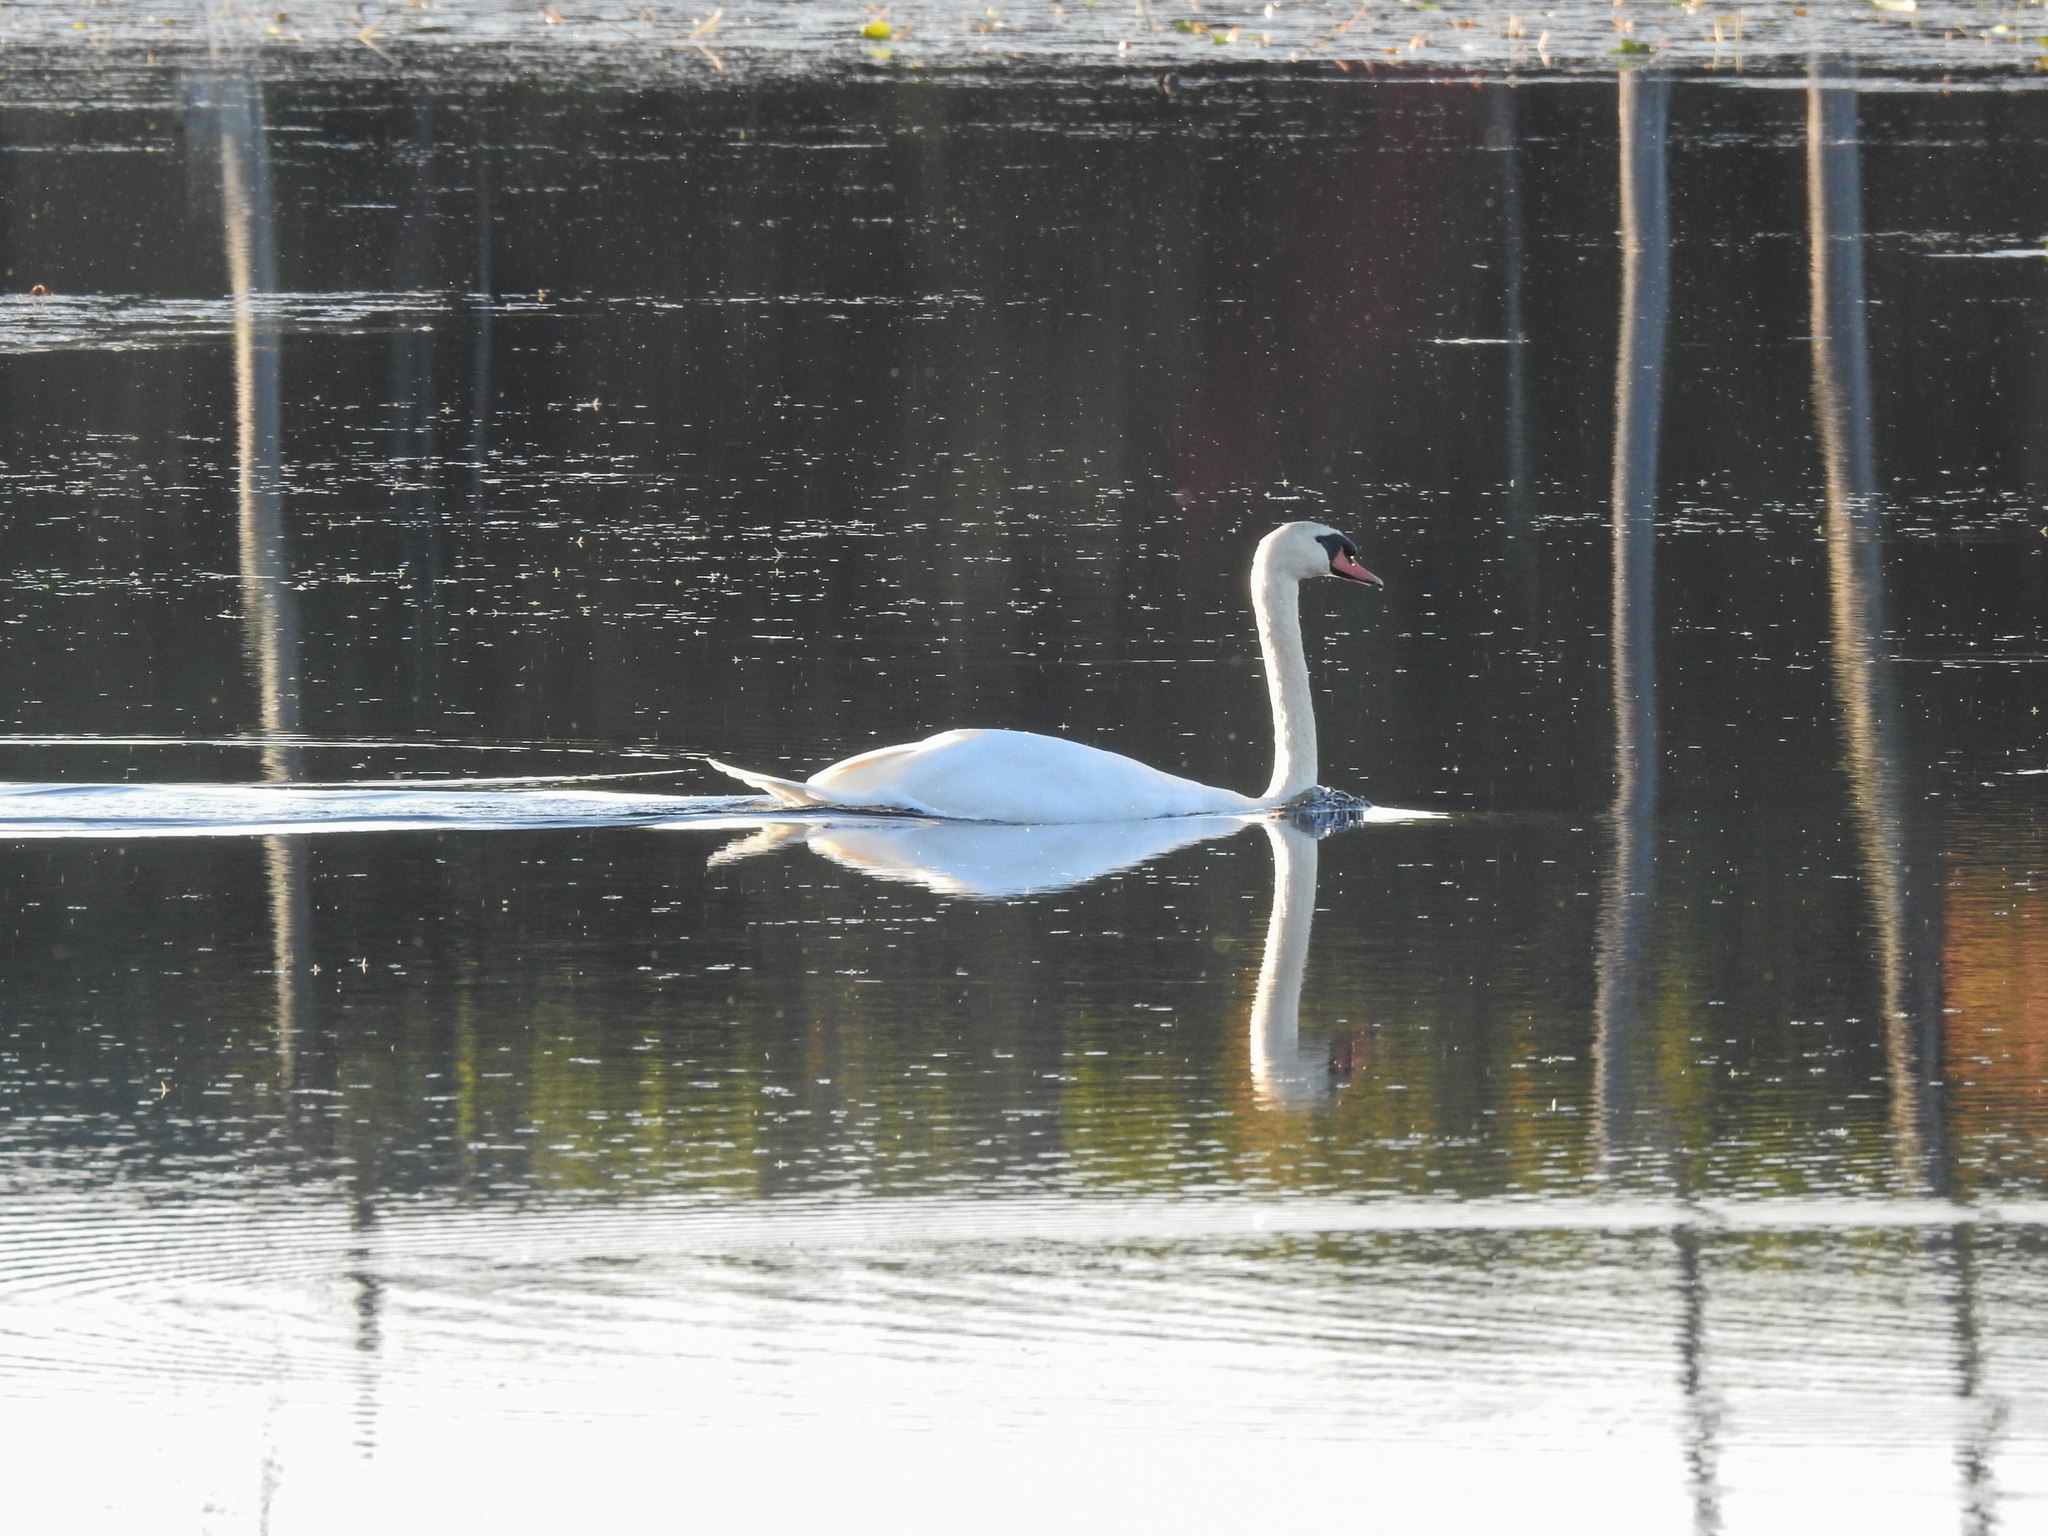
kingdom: Animalia
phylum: Chordata
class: Aves
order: Anseriformes
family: Anatidae
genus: Cygnus
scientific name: Cygnus olor
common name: Mute swan
